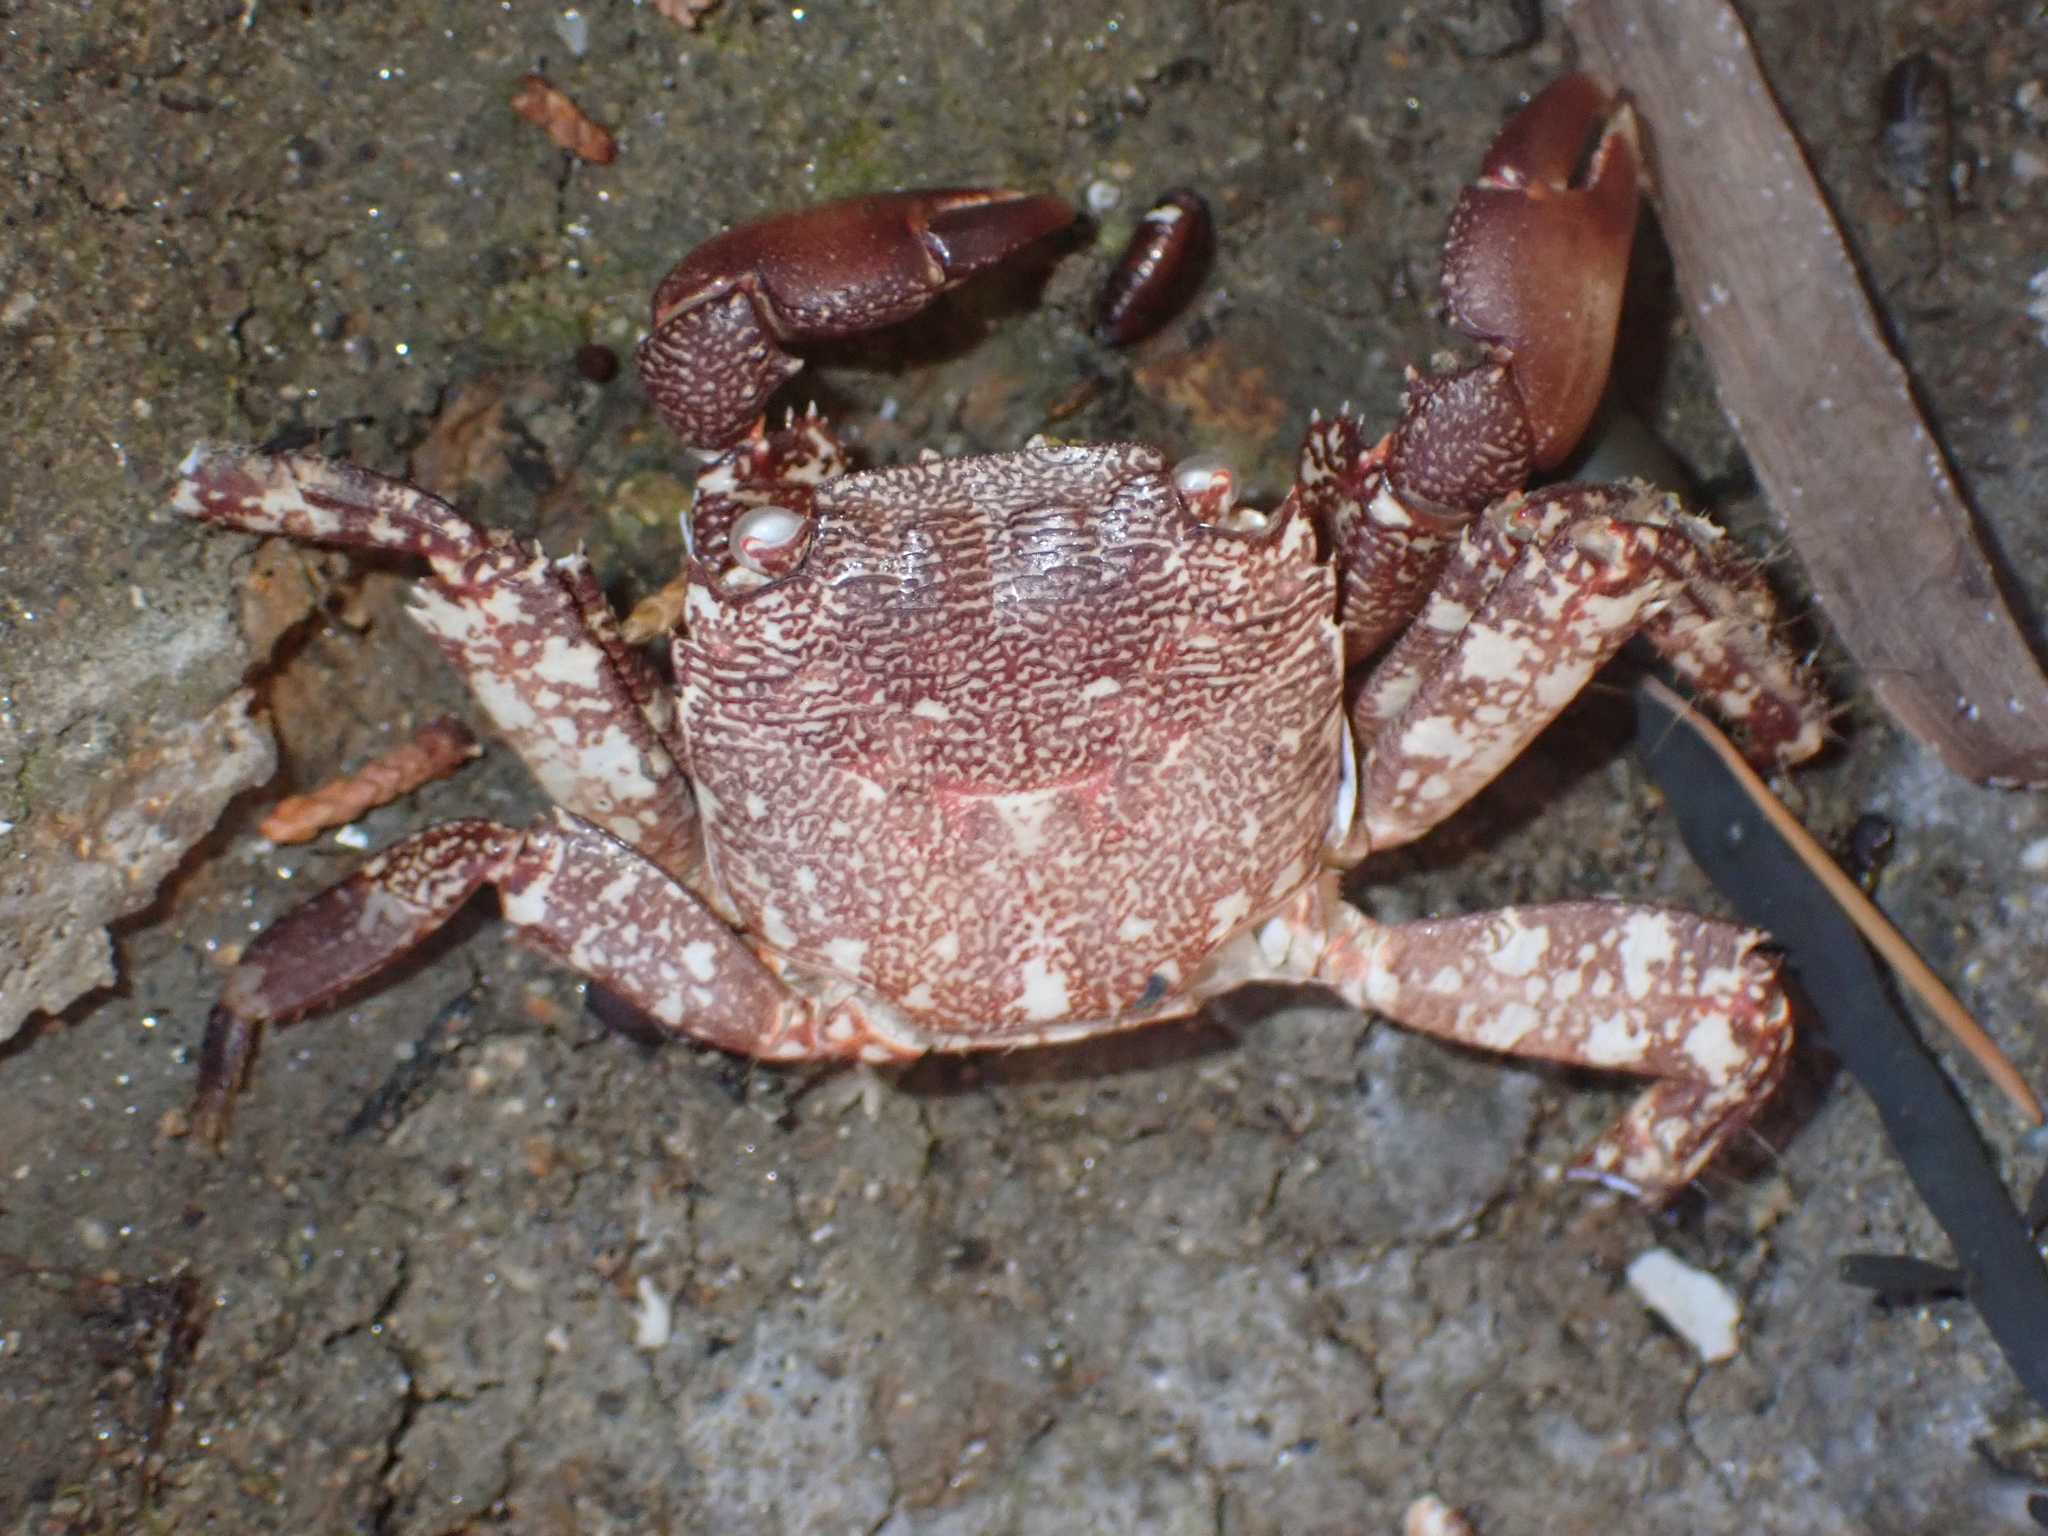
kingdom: Animalia
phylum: Arthropoda
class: Malacostraca
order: Decapoda
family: Grapsidae
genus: Pachygrapsus
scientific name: Pachygrapsus marmoratus
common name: Marbled rock crab
